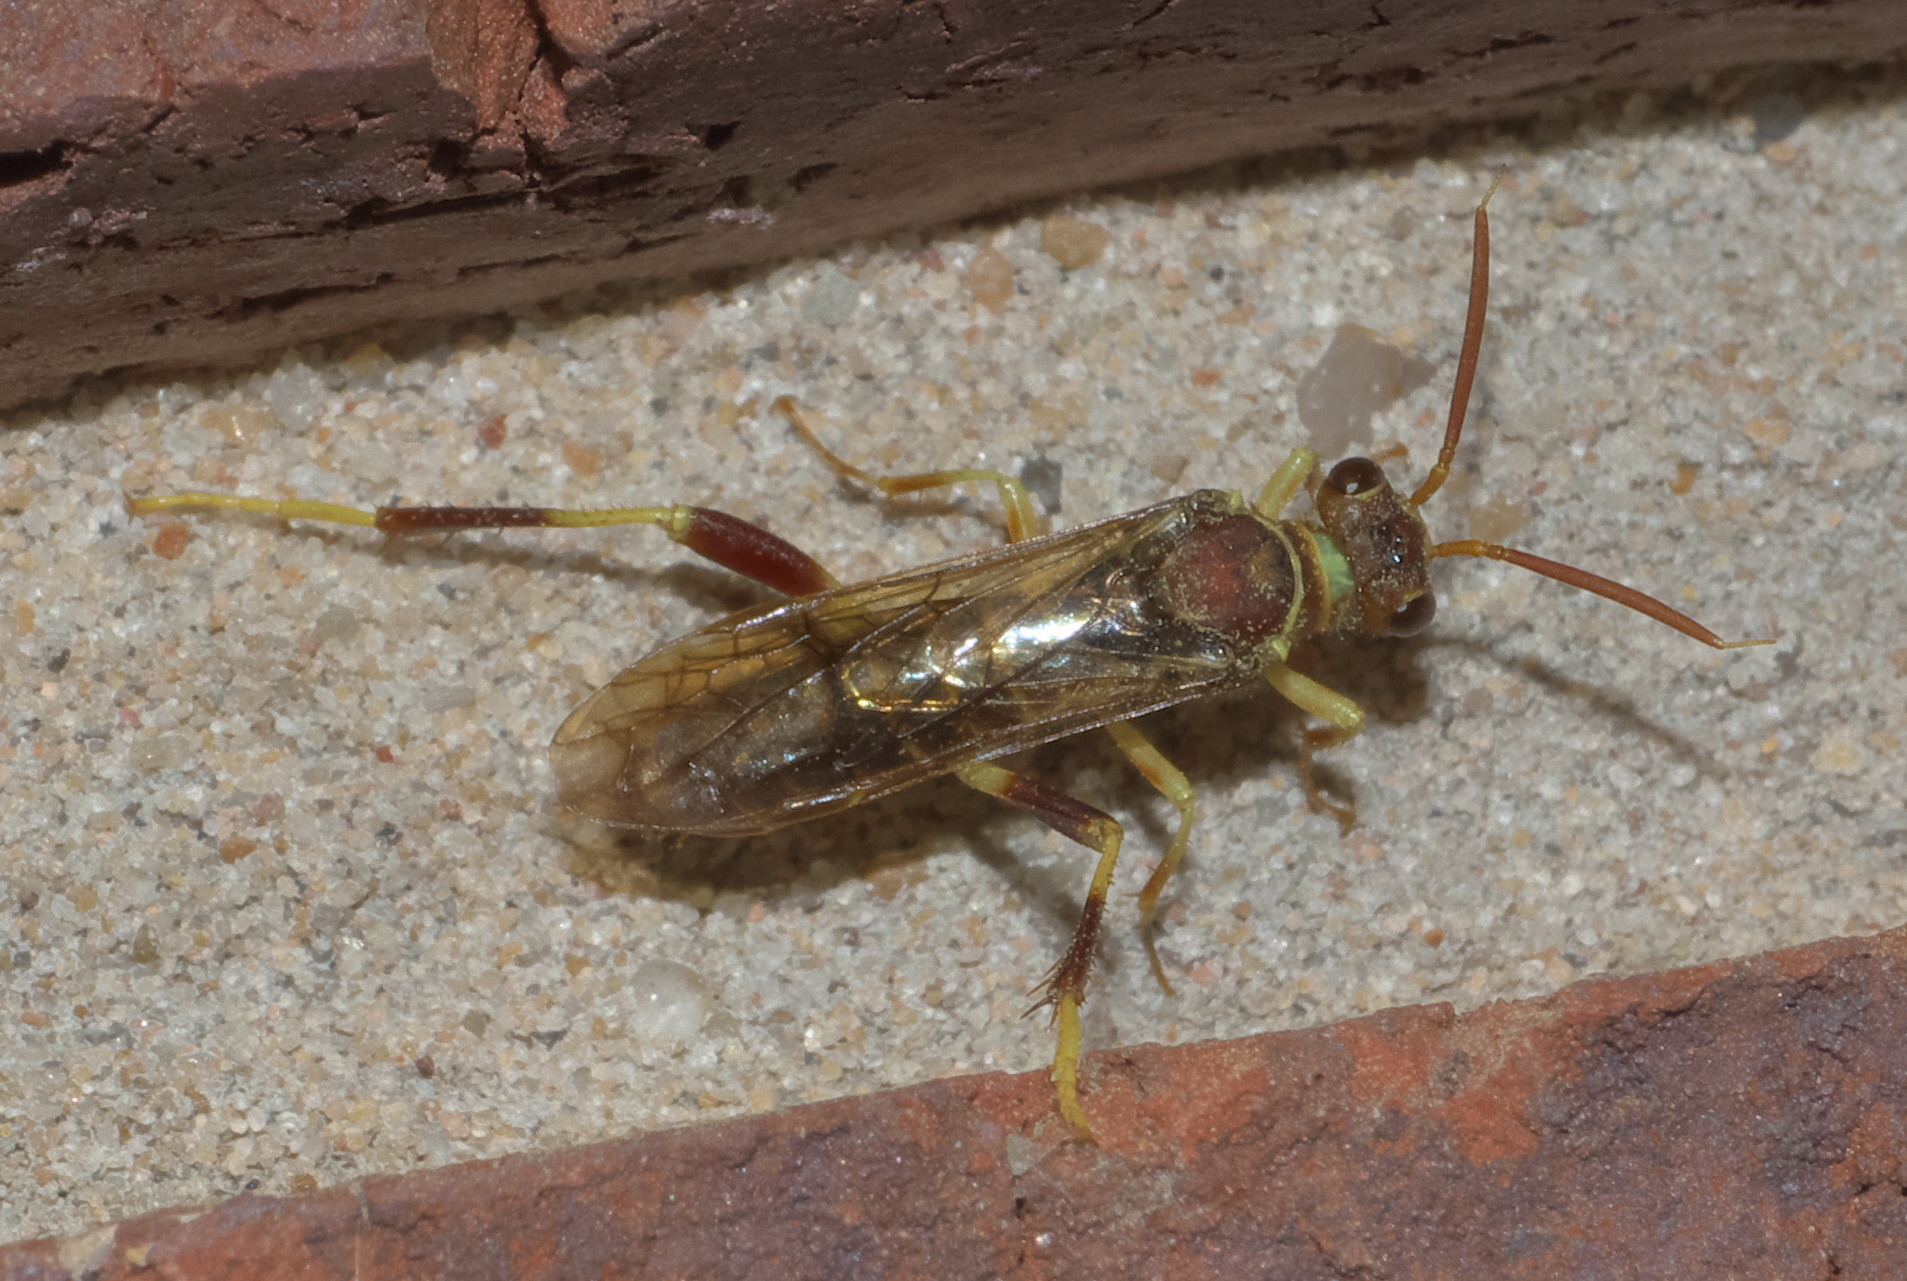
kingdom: Animalia
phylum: Arthropoda
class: Insecta
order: Hymenoptera
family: Xyelidae
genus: Megaxyela
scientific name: Megaxyela major
